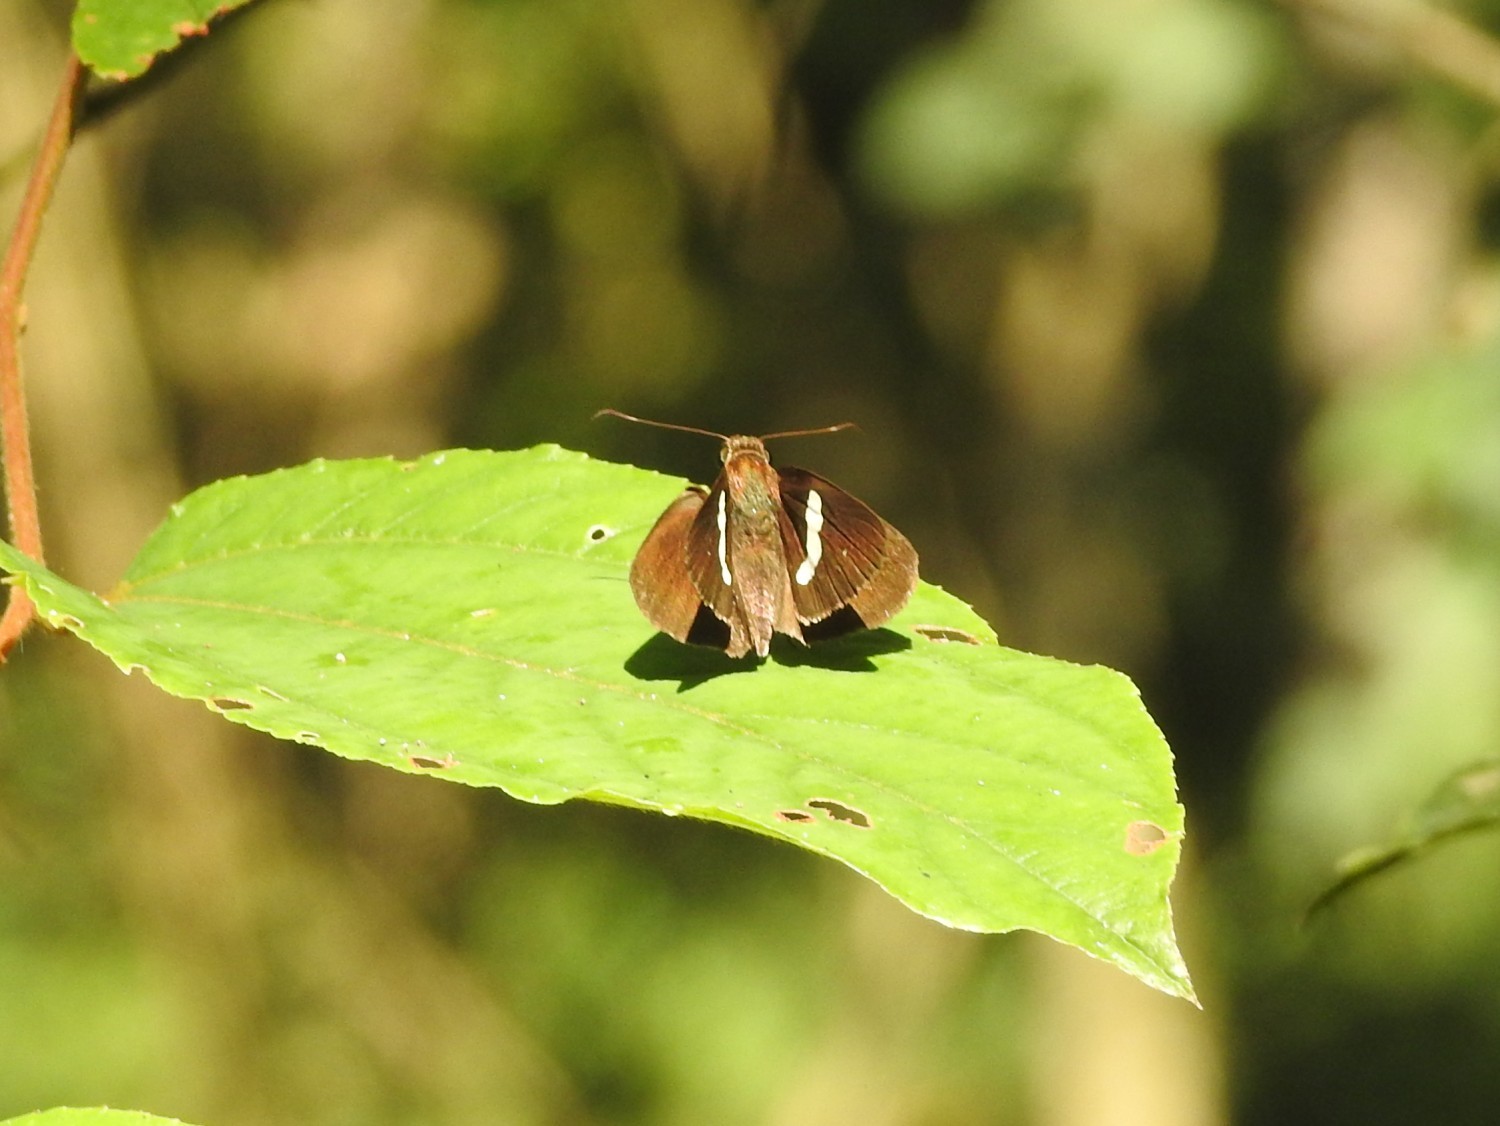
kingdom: Animalia
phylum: Arthropoda
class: Insecta
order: Lepidoptera
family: Hesperiidae
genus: Notocrypta
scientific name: Notocrypta paralysos
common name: Common banded demon
